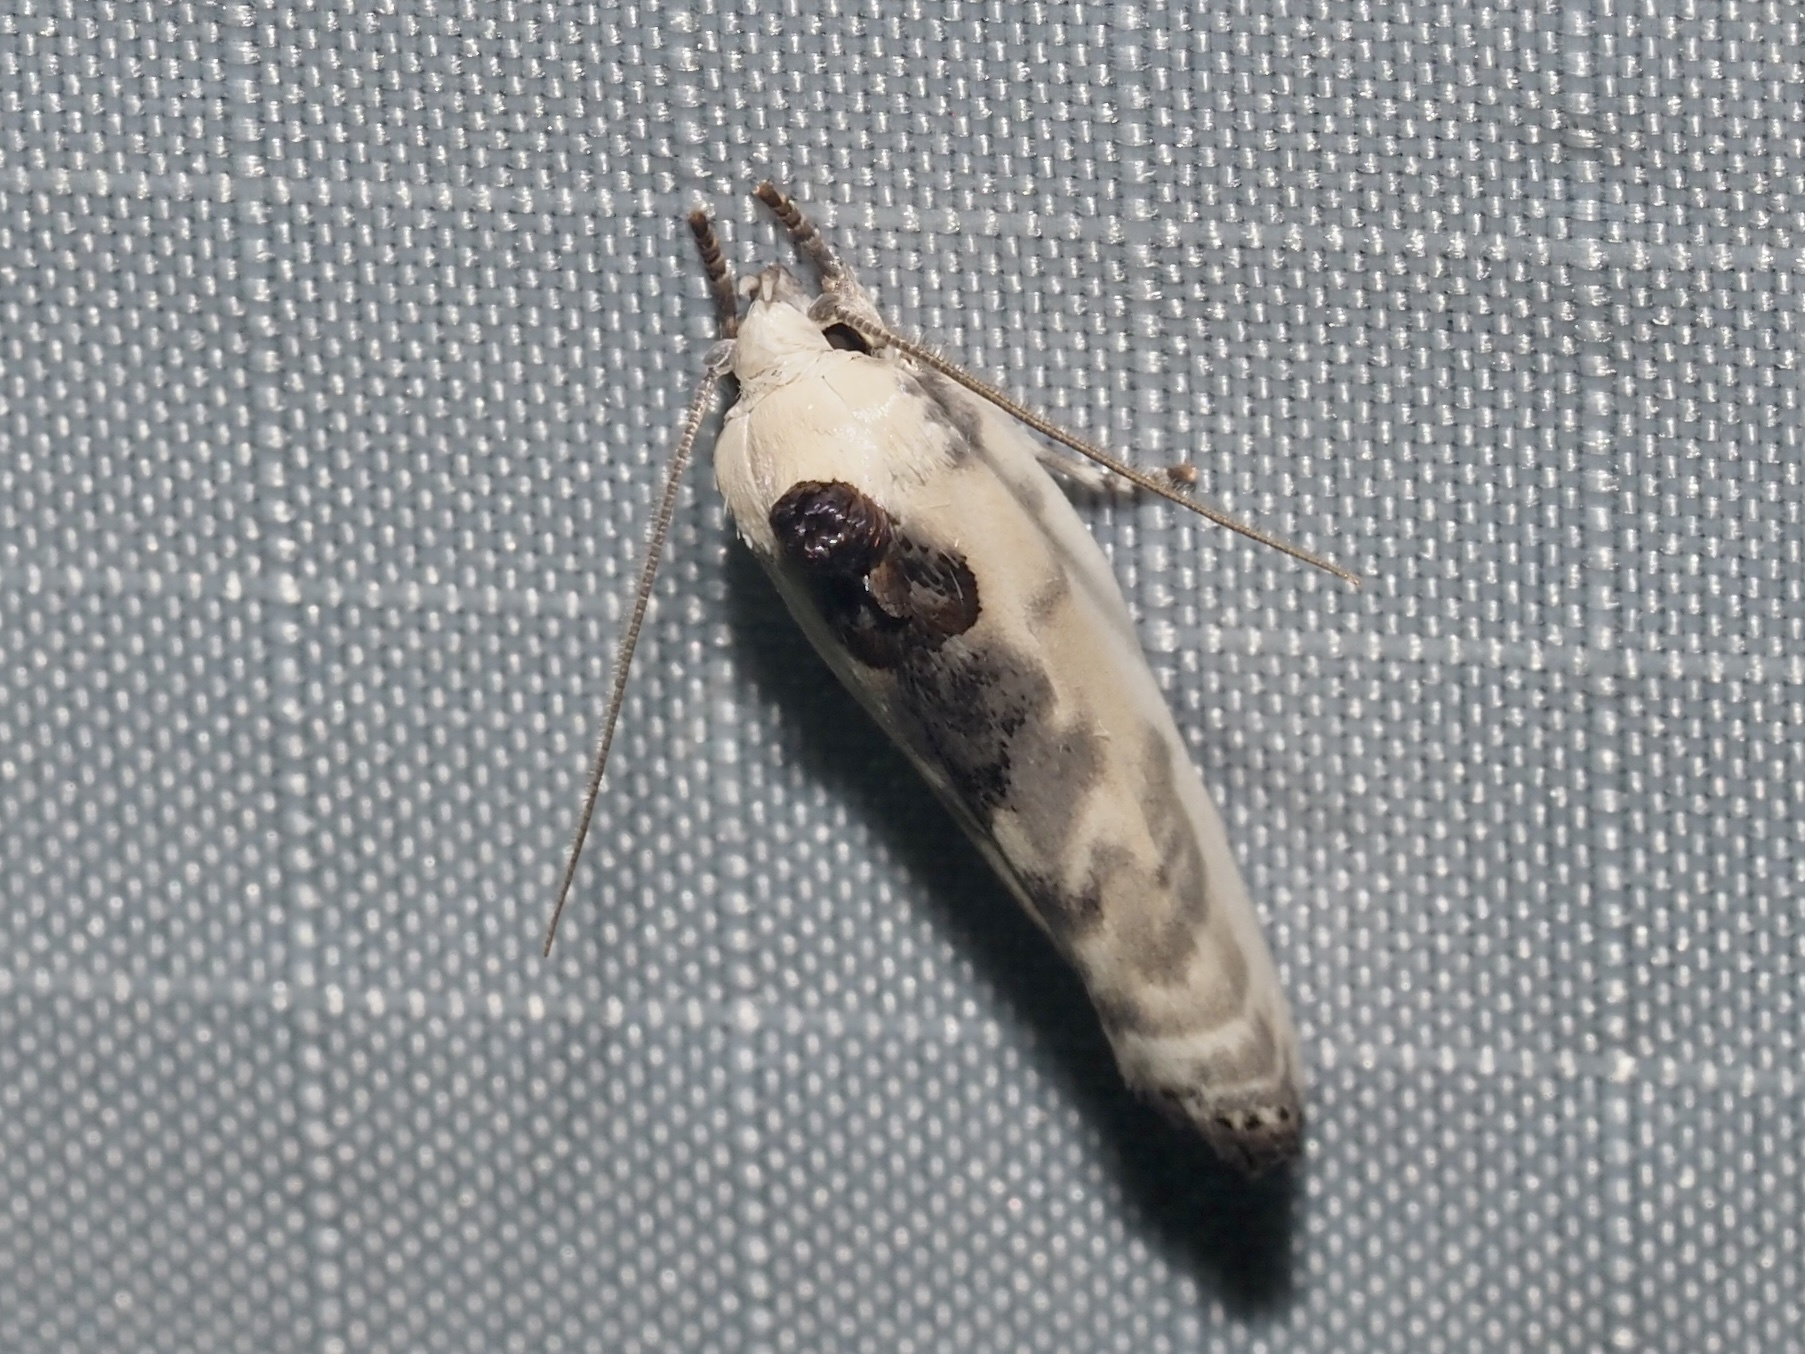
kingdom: Animalia
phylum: Arthropoda
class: Insecta
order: Lepidoptera
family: Depressariidae
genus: Antaeotricha
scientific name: Antaeotricha schlaegeri
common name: Schlaeger's fruitworm moth
